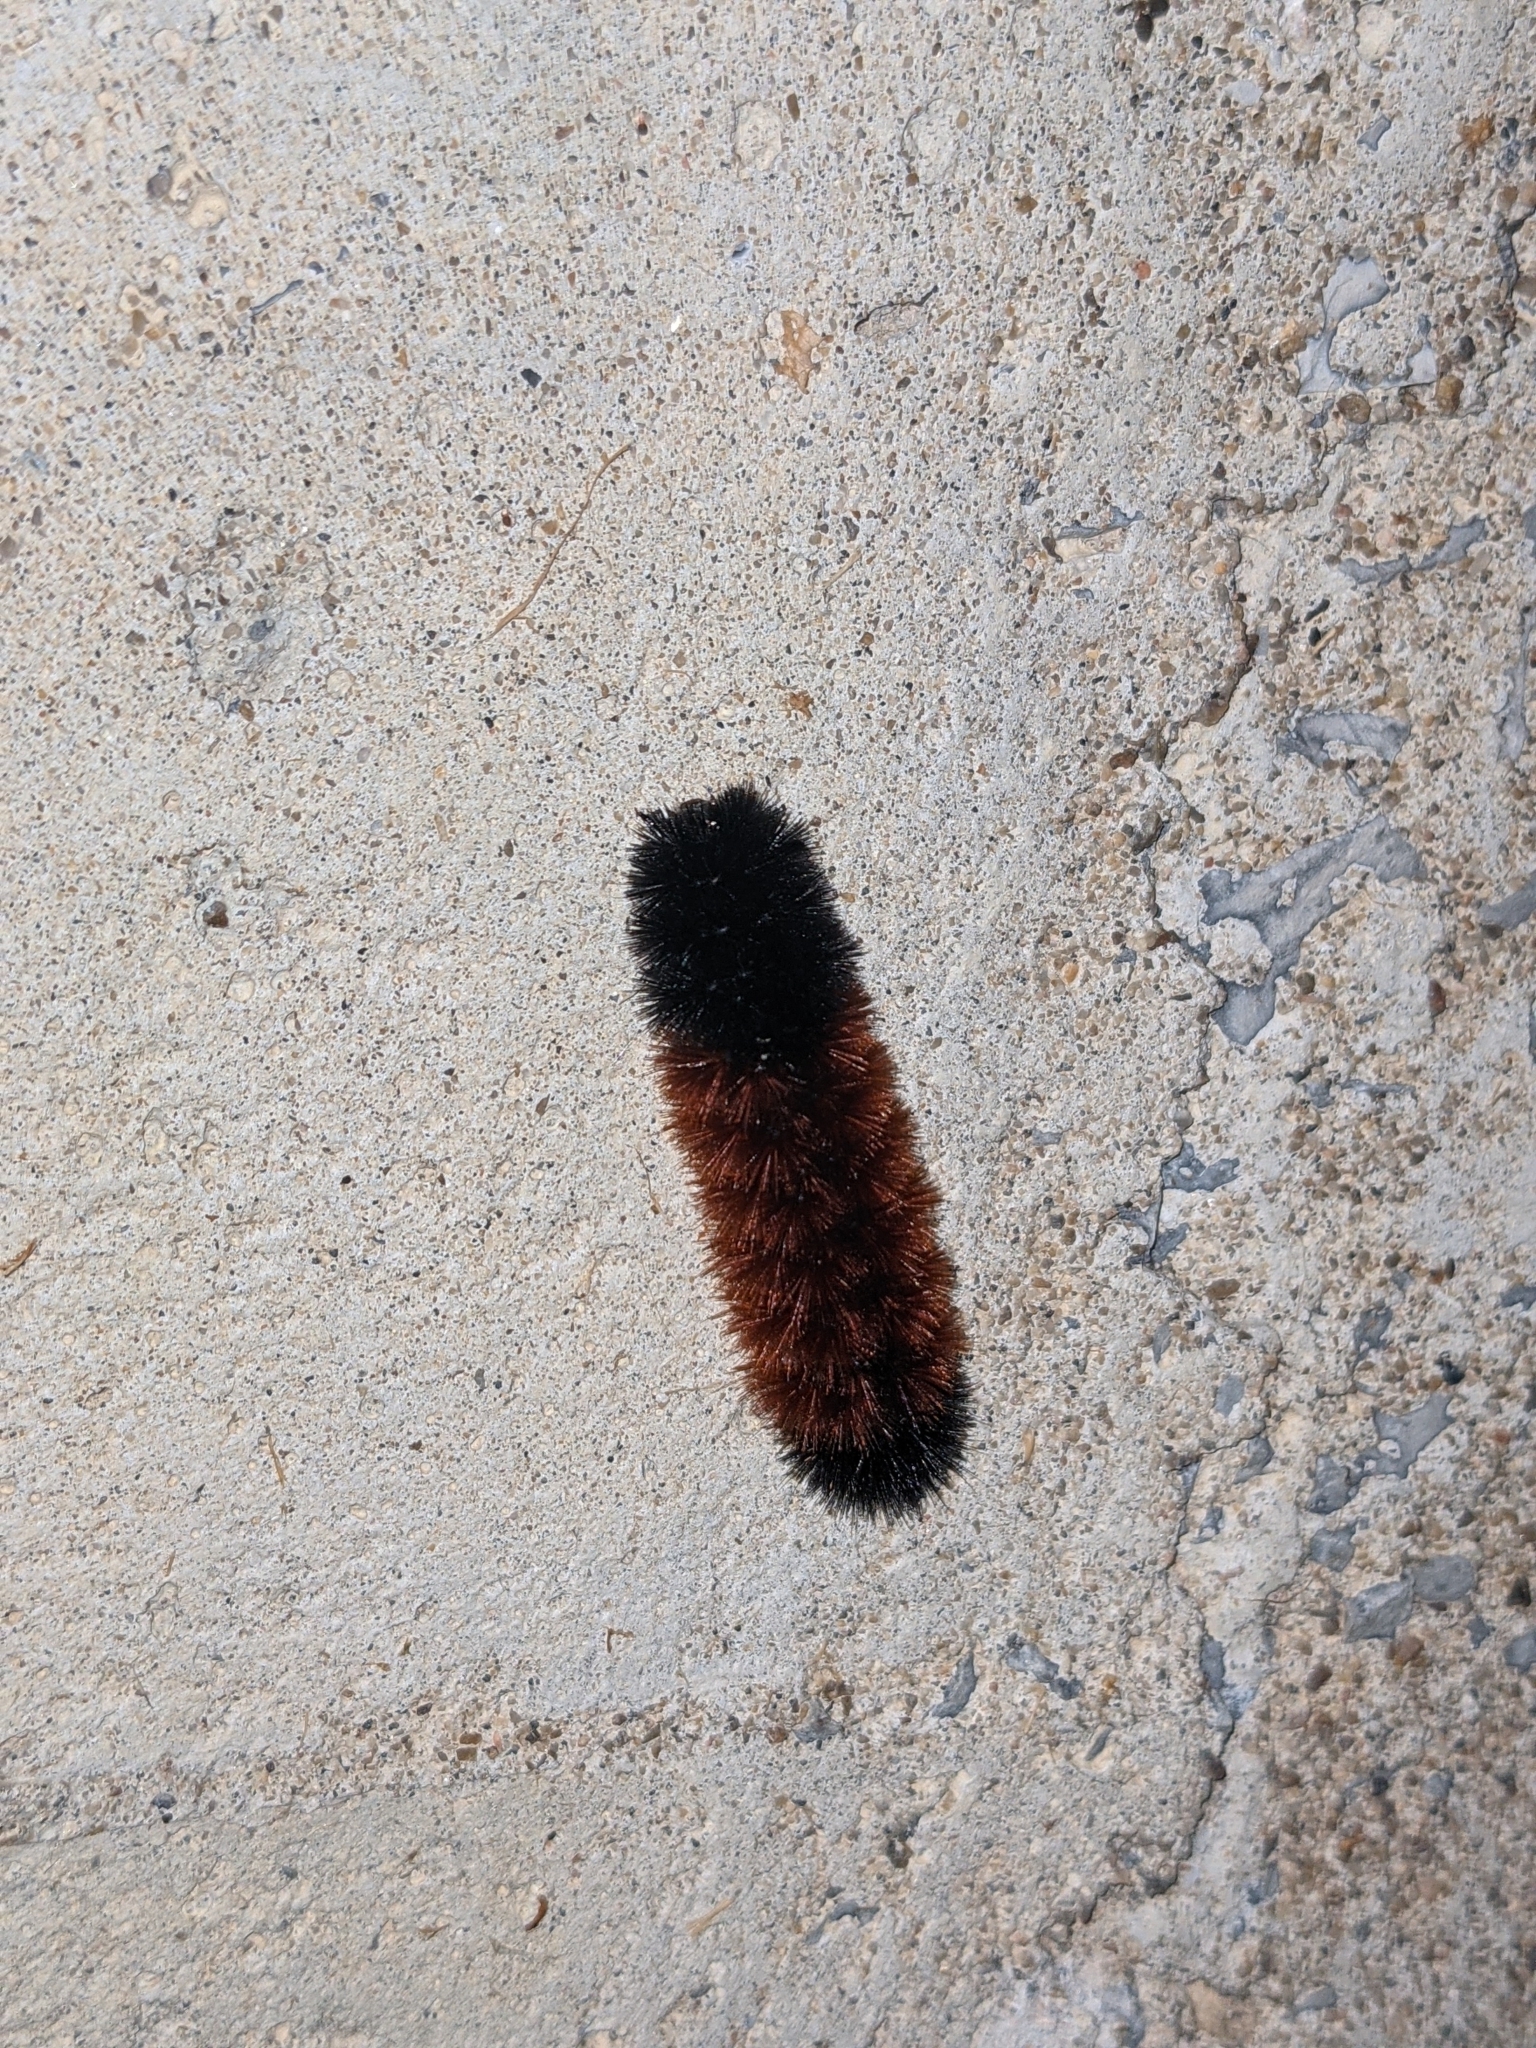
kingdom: Animalia
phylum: Arthropoda
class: Insecta
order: Lepidoptera
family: Erebidae
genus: Pyrrharctia
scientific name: Pyrrharctia isabella
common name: Isabella tiger moth
